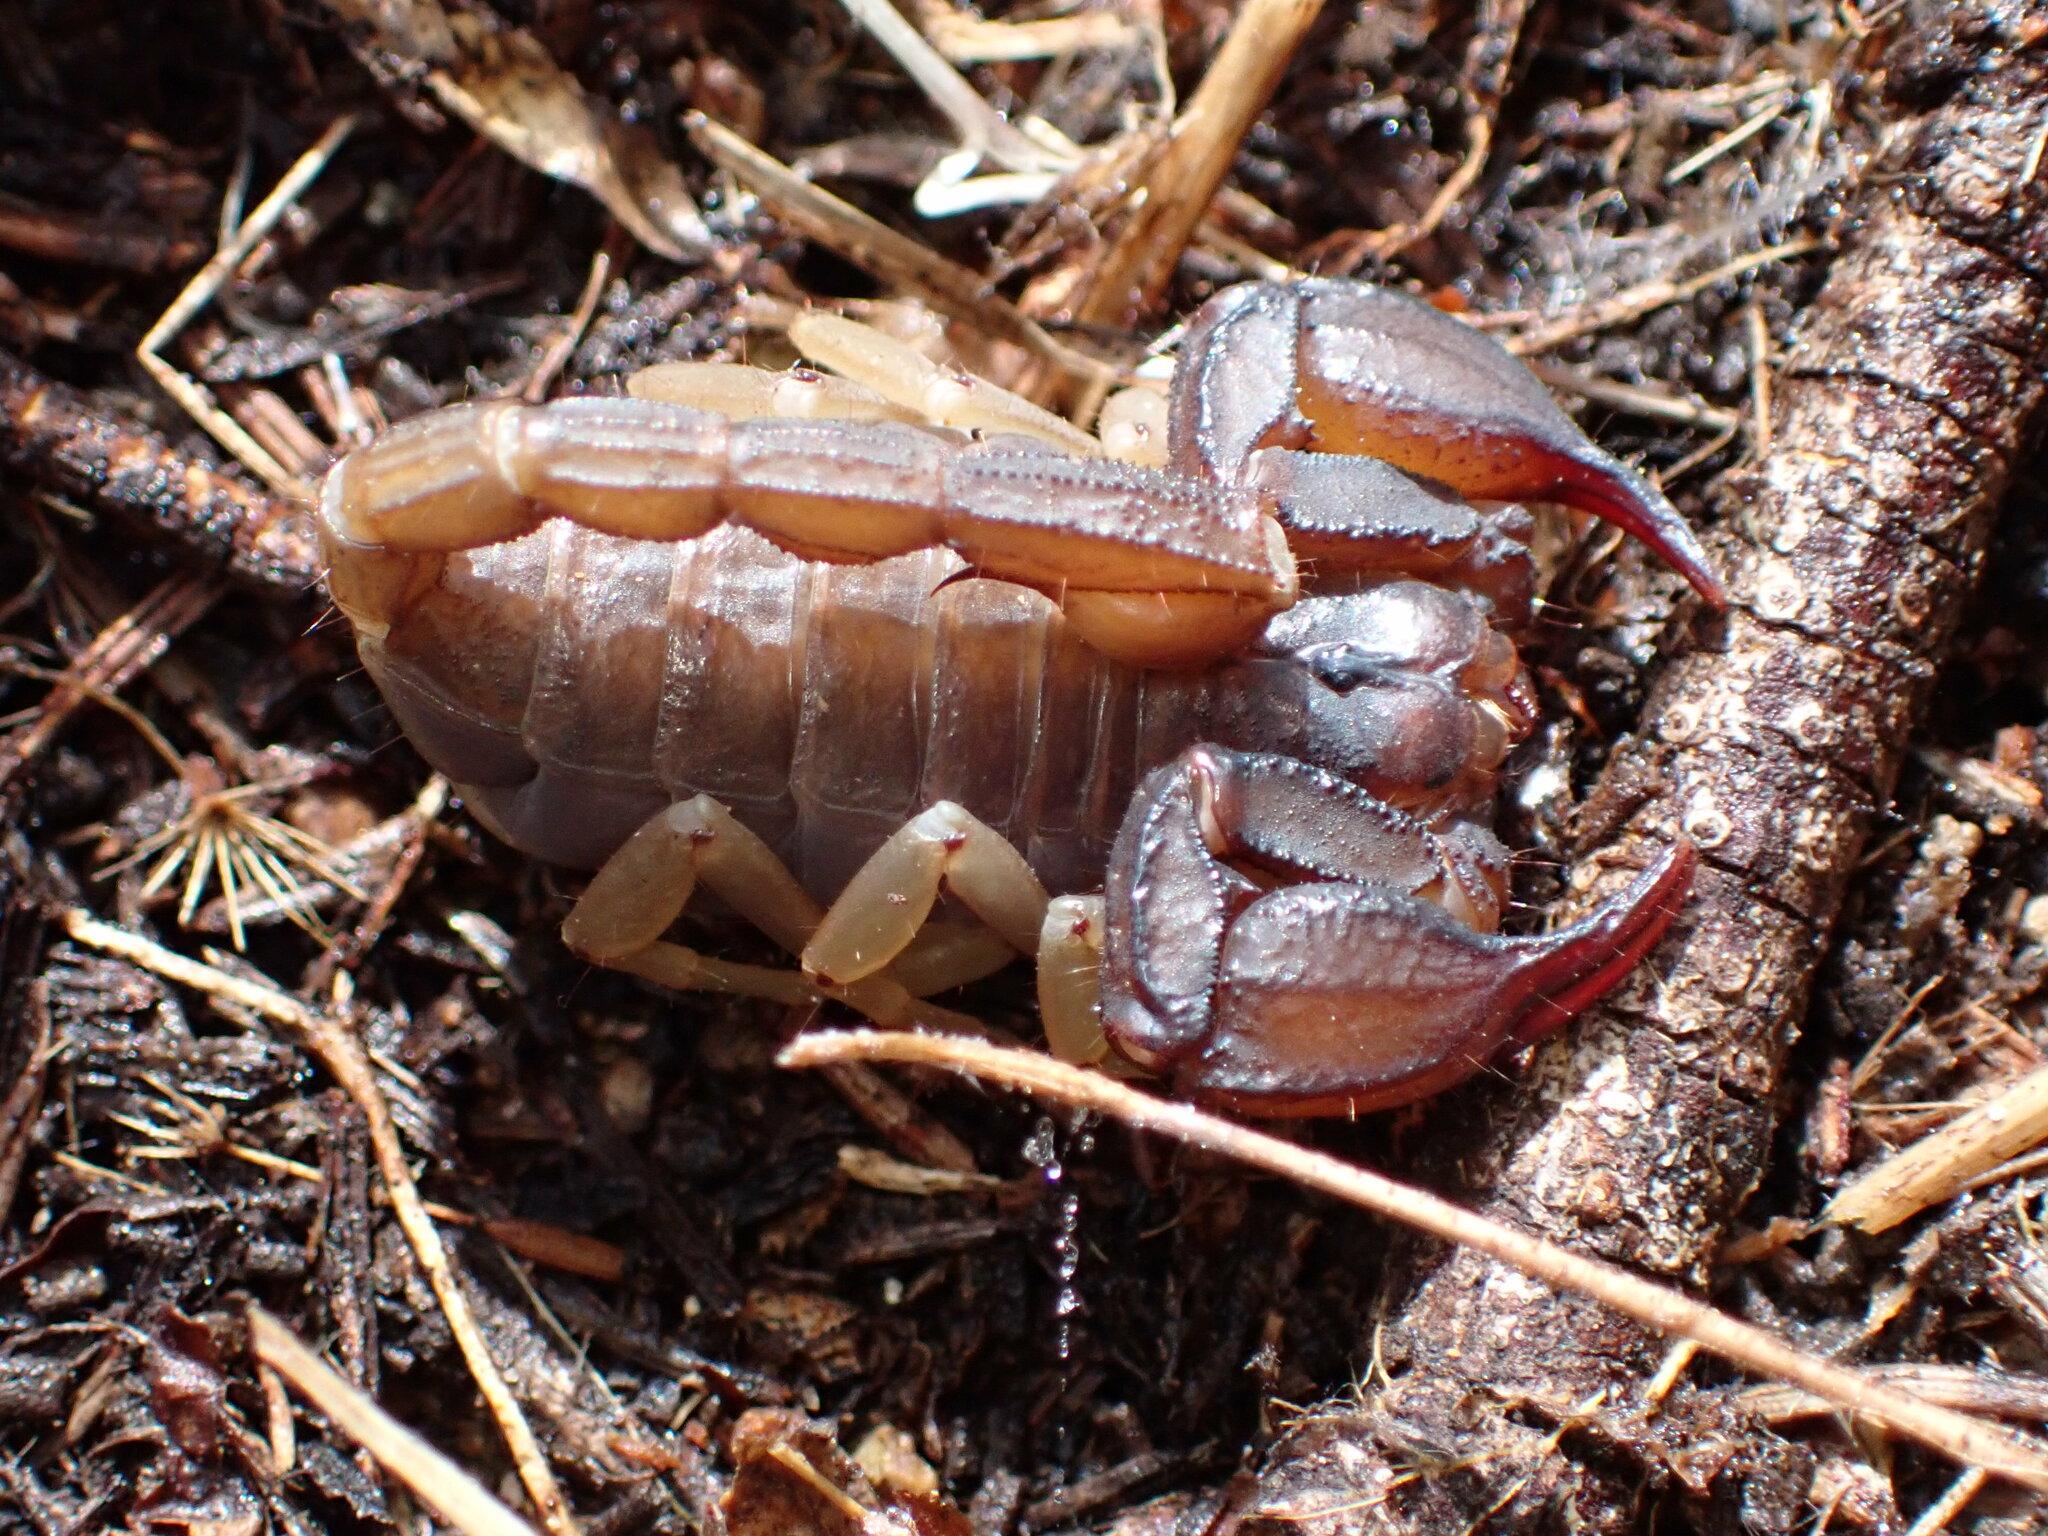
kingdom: Animalia
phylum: Arthropoda
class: Arachnida
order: Scorpiones
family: Chactidae
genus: Uroctonus
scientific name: Uroctonus mordax
